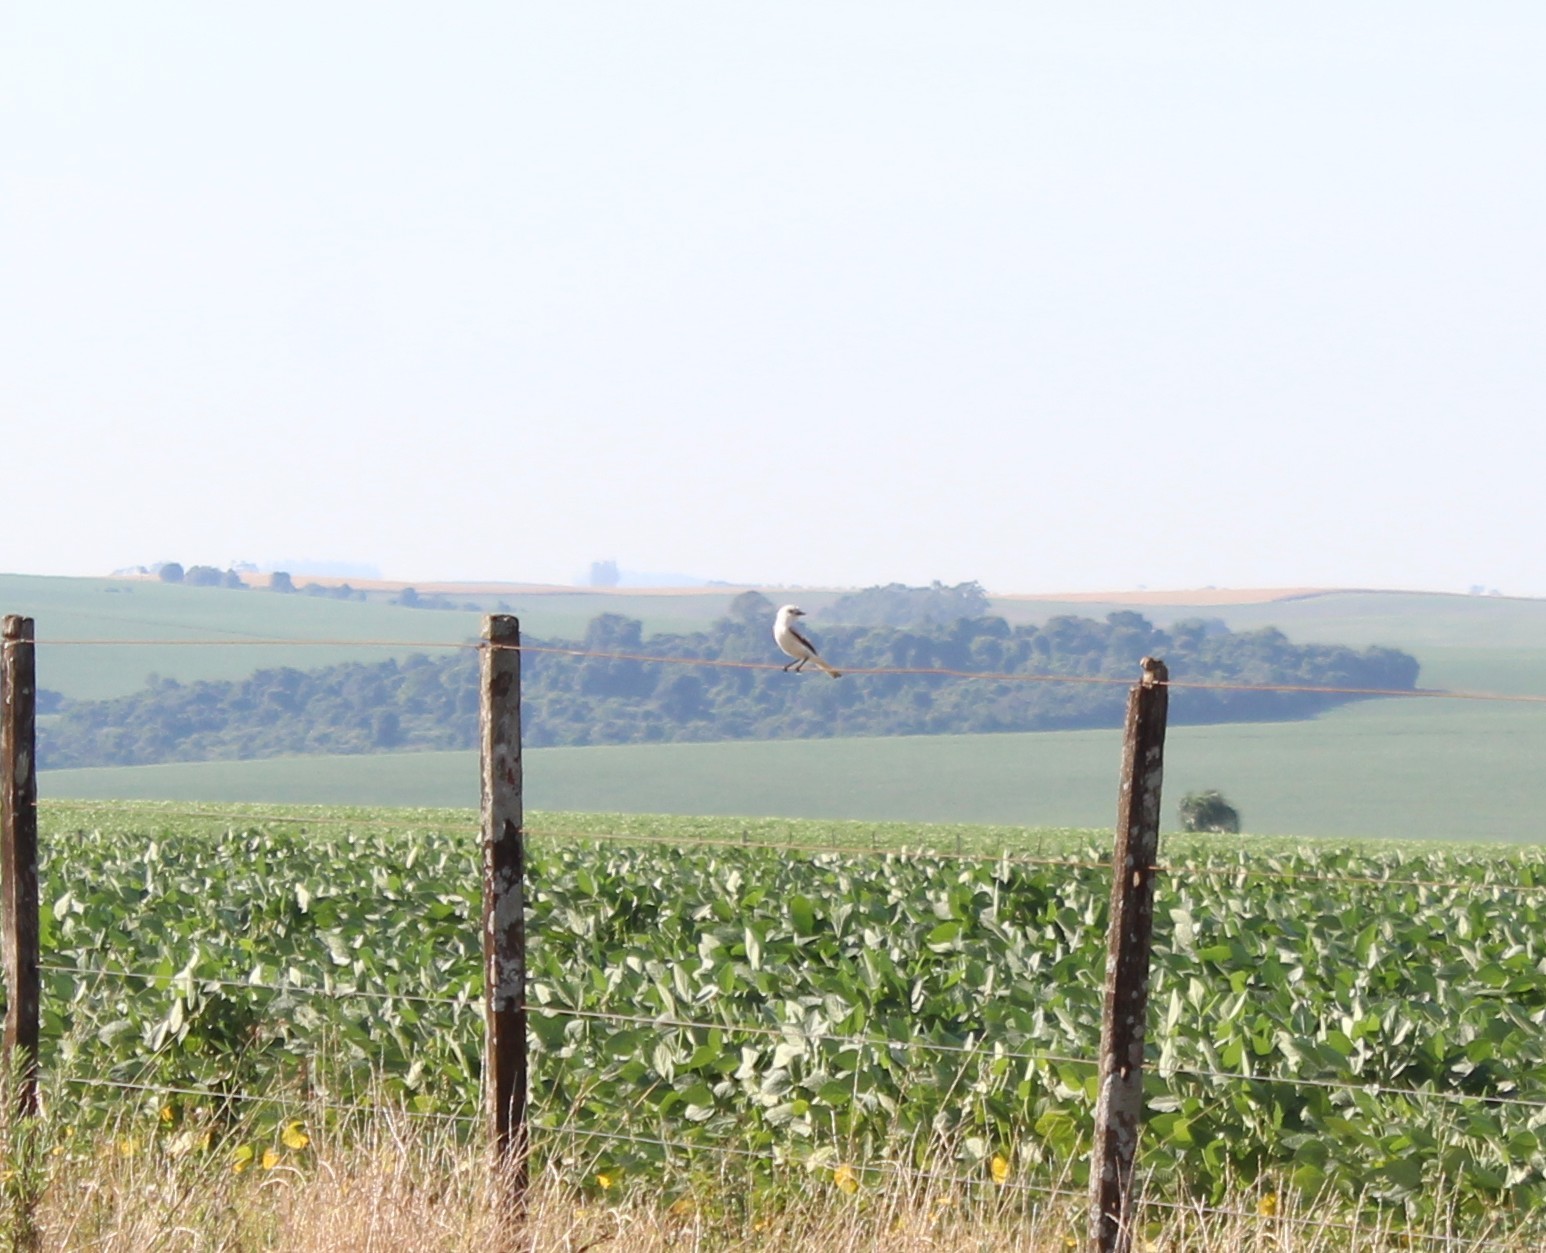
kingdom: Animalia
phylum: Chordata
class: Aves
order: Passeriformes
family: Tyrannidae
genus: Xolmis
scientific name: Xolmis irupero
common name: White monjita
